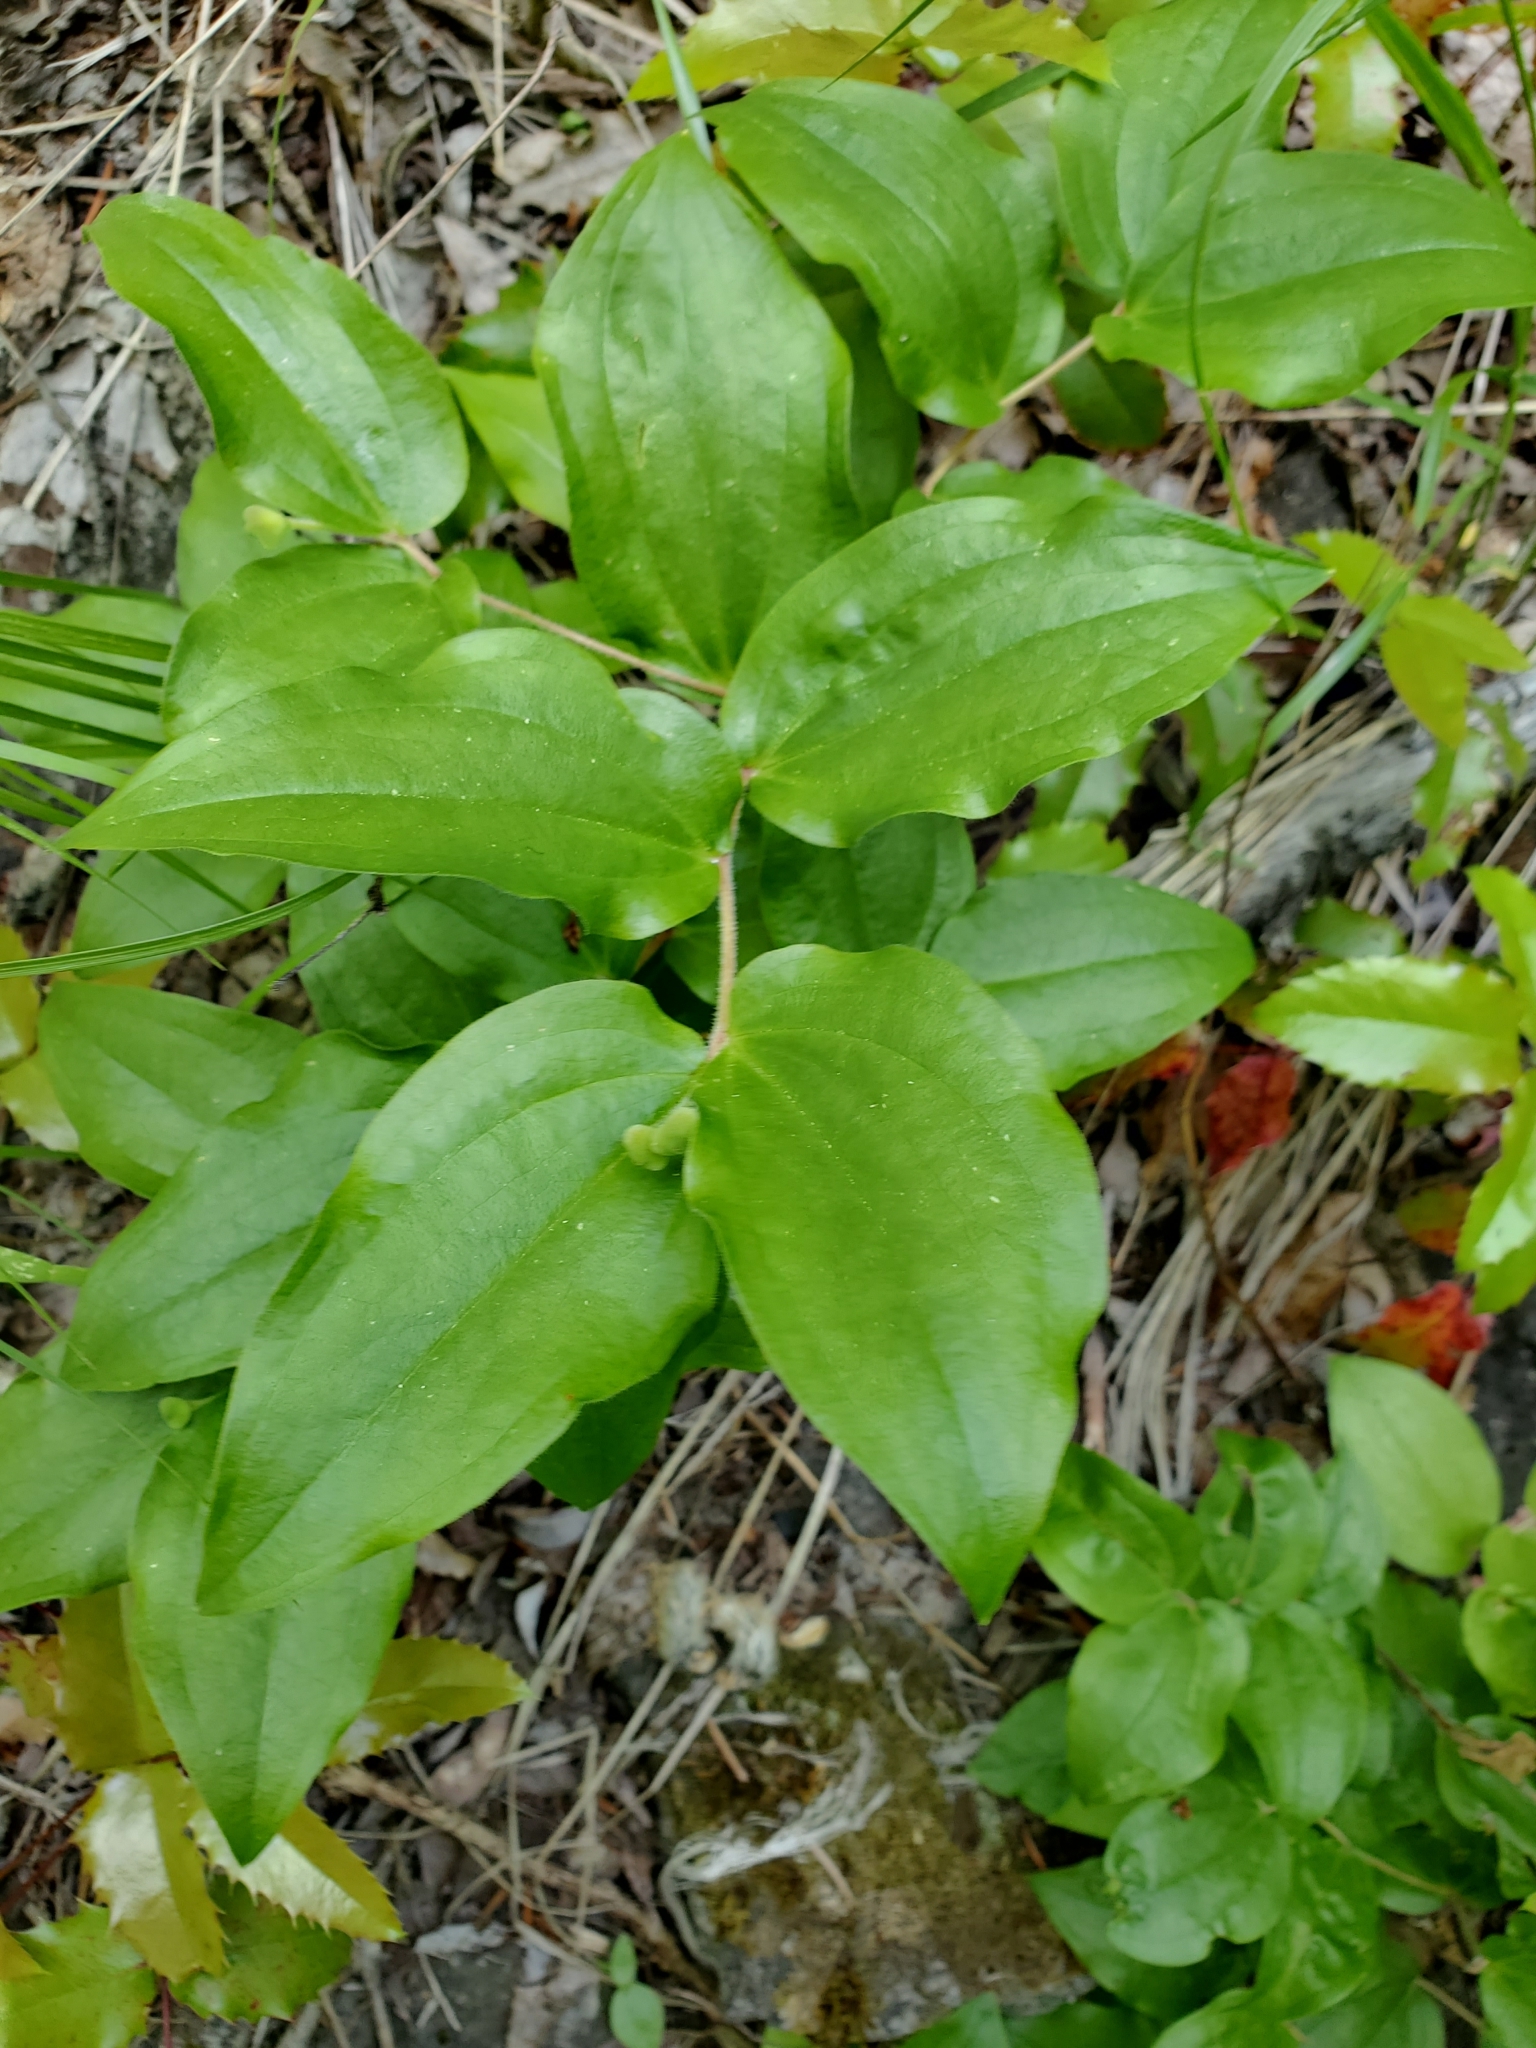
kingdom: Plantae
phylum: Tracheophyta
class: Liliopsida
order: Liliales
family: Liliaceae
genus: Prosartes
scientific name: Prosartes trachycarpa
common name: Rough-fruit fairy-bells
